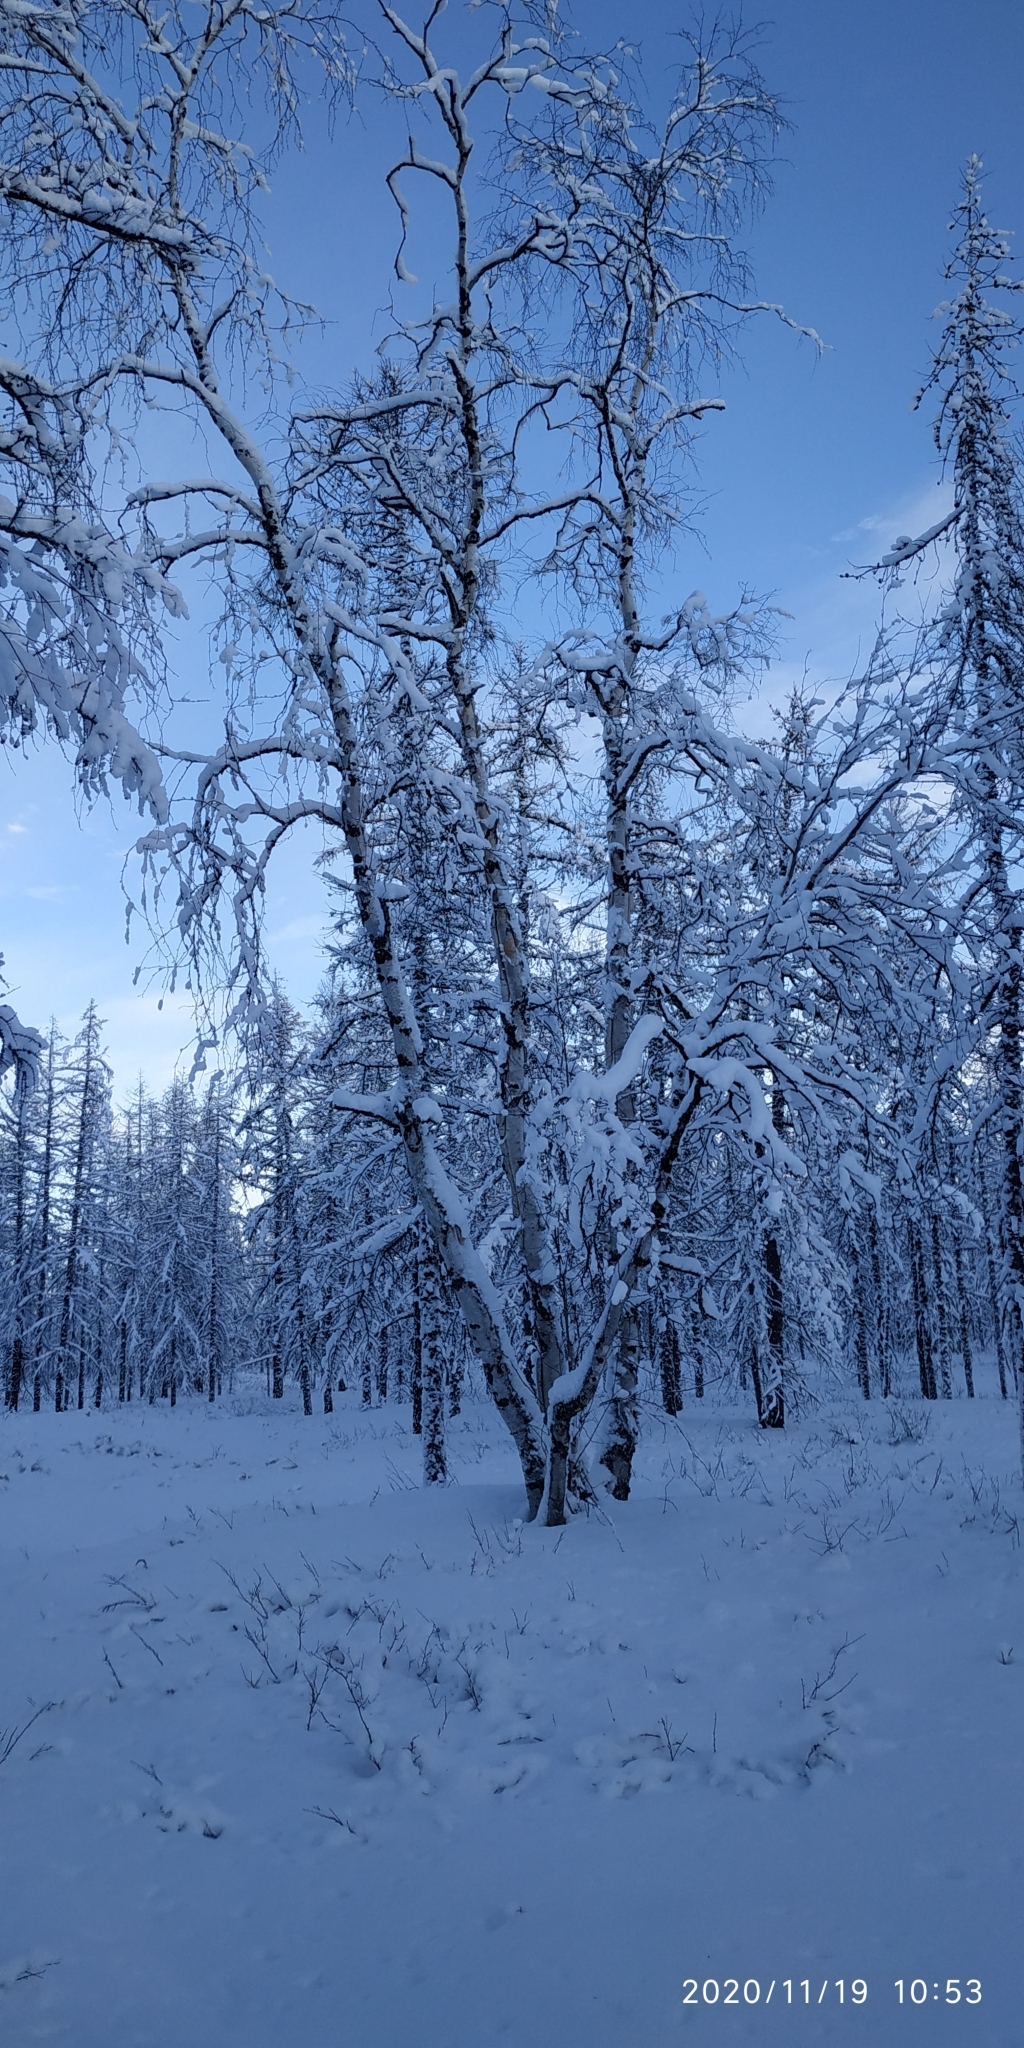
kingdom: Plantae
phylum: Tracheophyta
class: Magnoliopsida
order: Fagales
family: Betulaceae
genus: Betula
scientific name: Betula pubescens
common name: Downy birch
